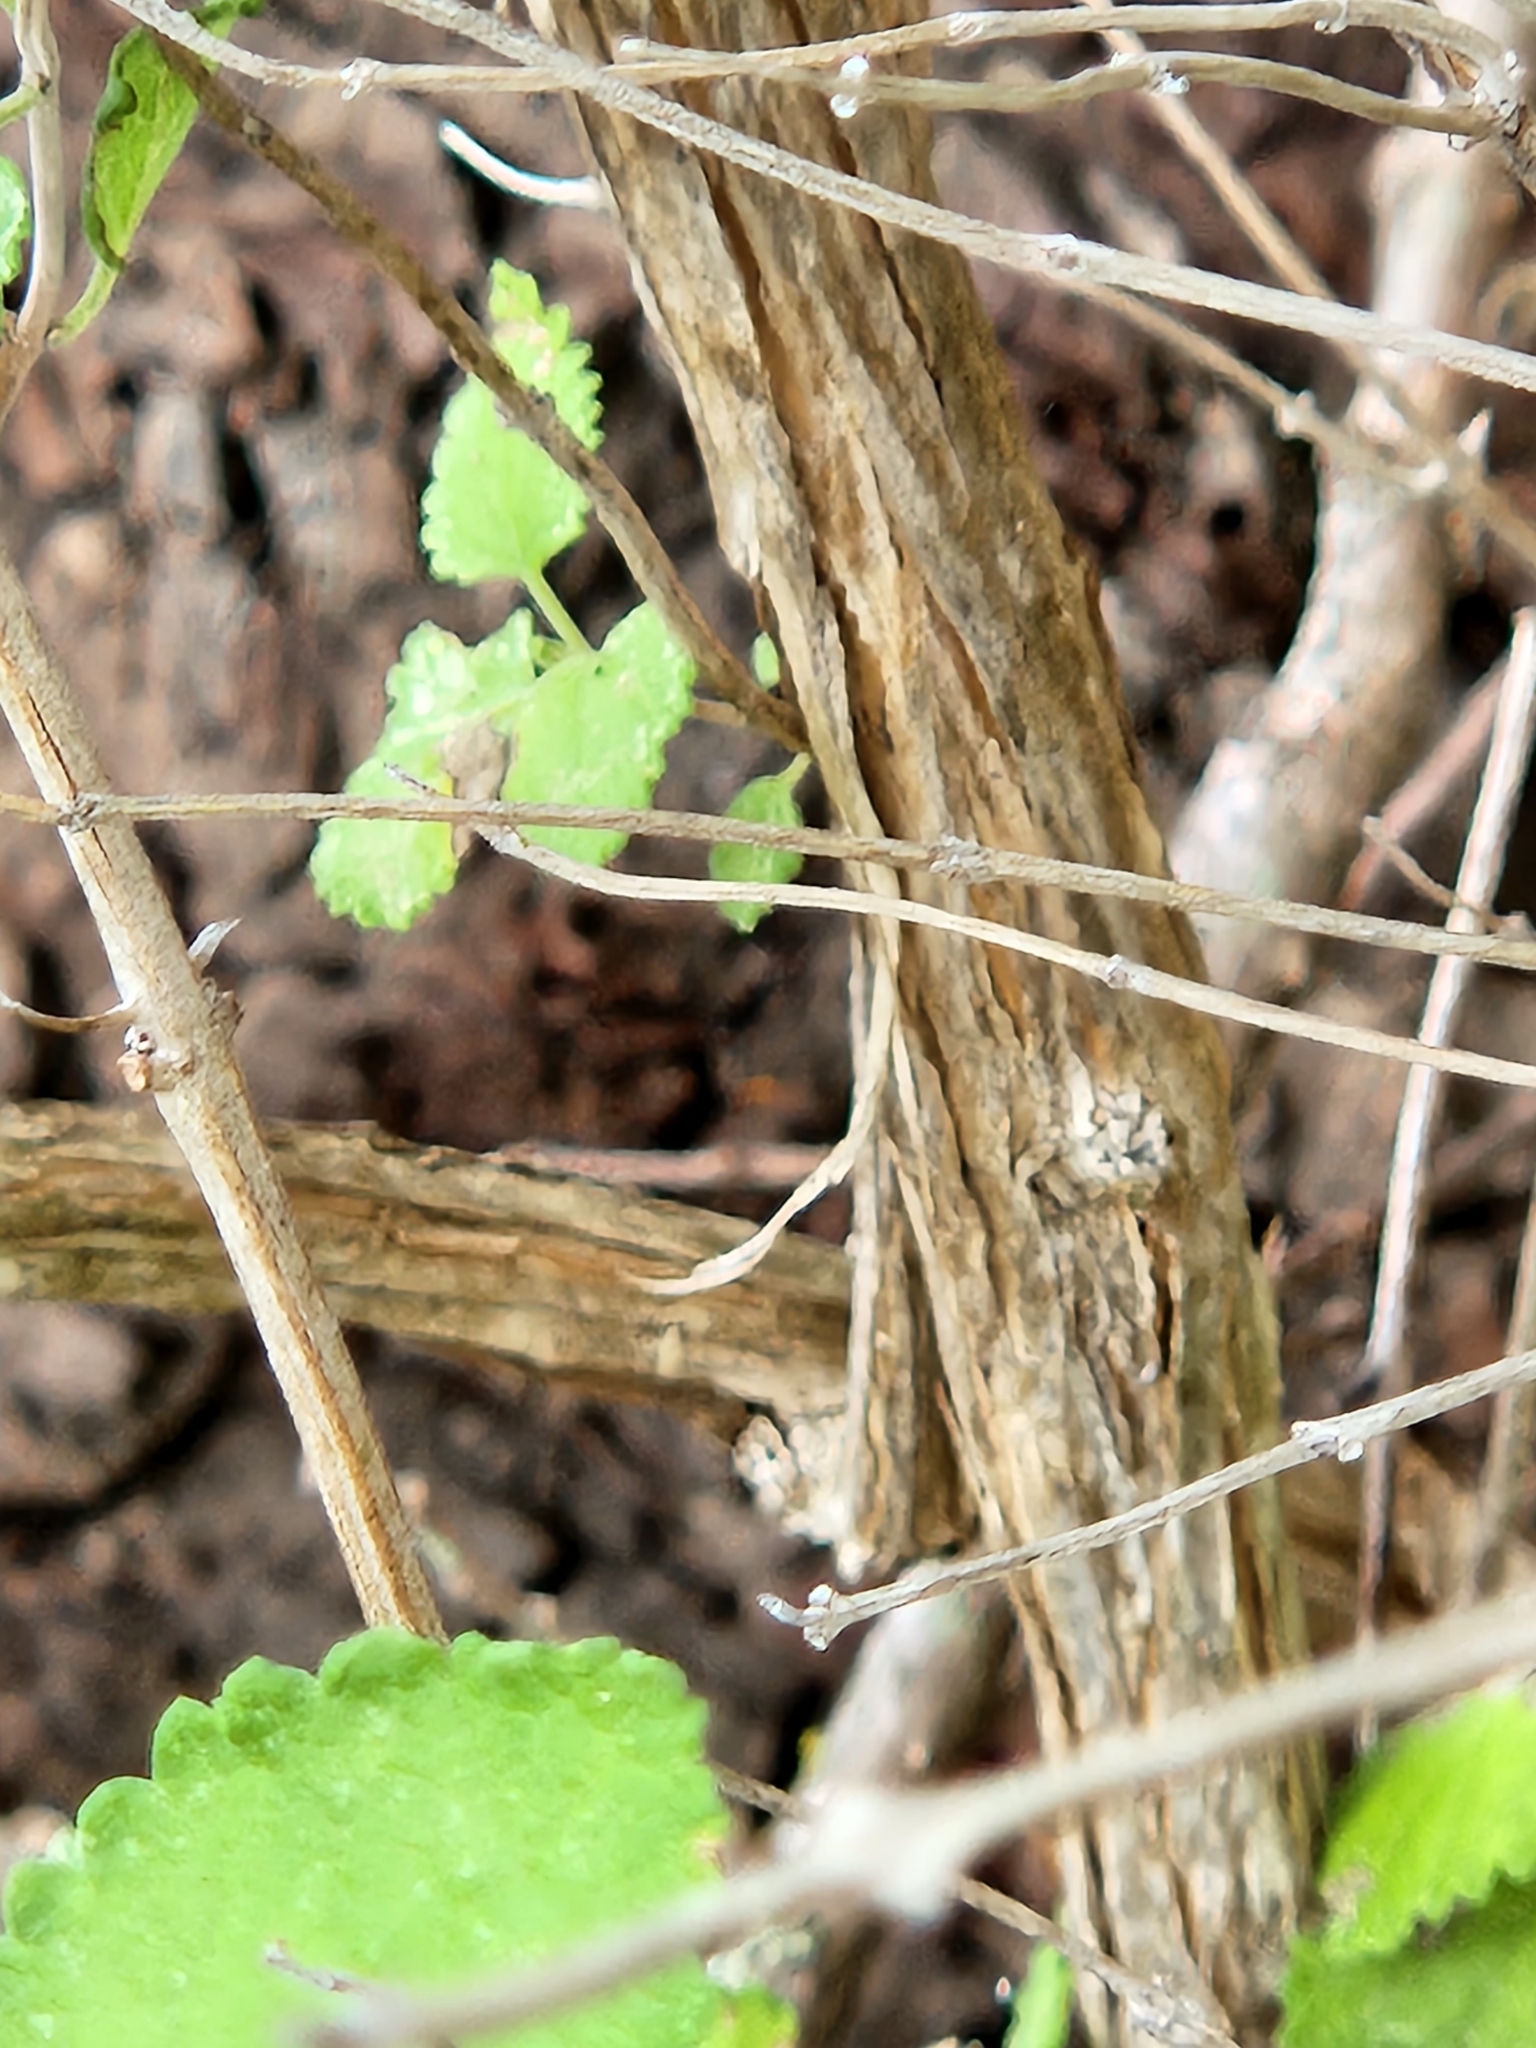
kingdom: Plantae
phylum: Tracheophyta
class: Magnoliopsida
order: Lamiales
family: Lamiaceae
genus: Salvia
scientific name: Salvia ballotiflora
